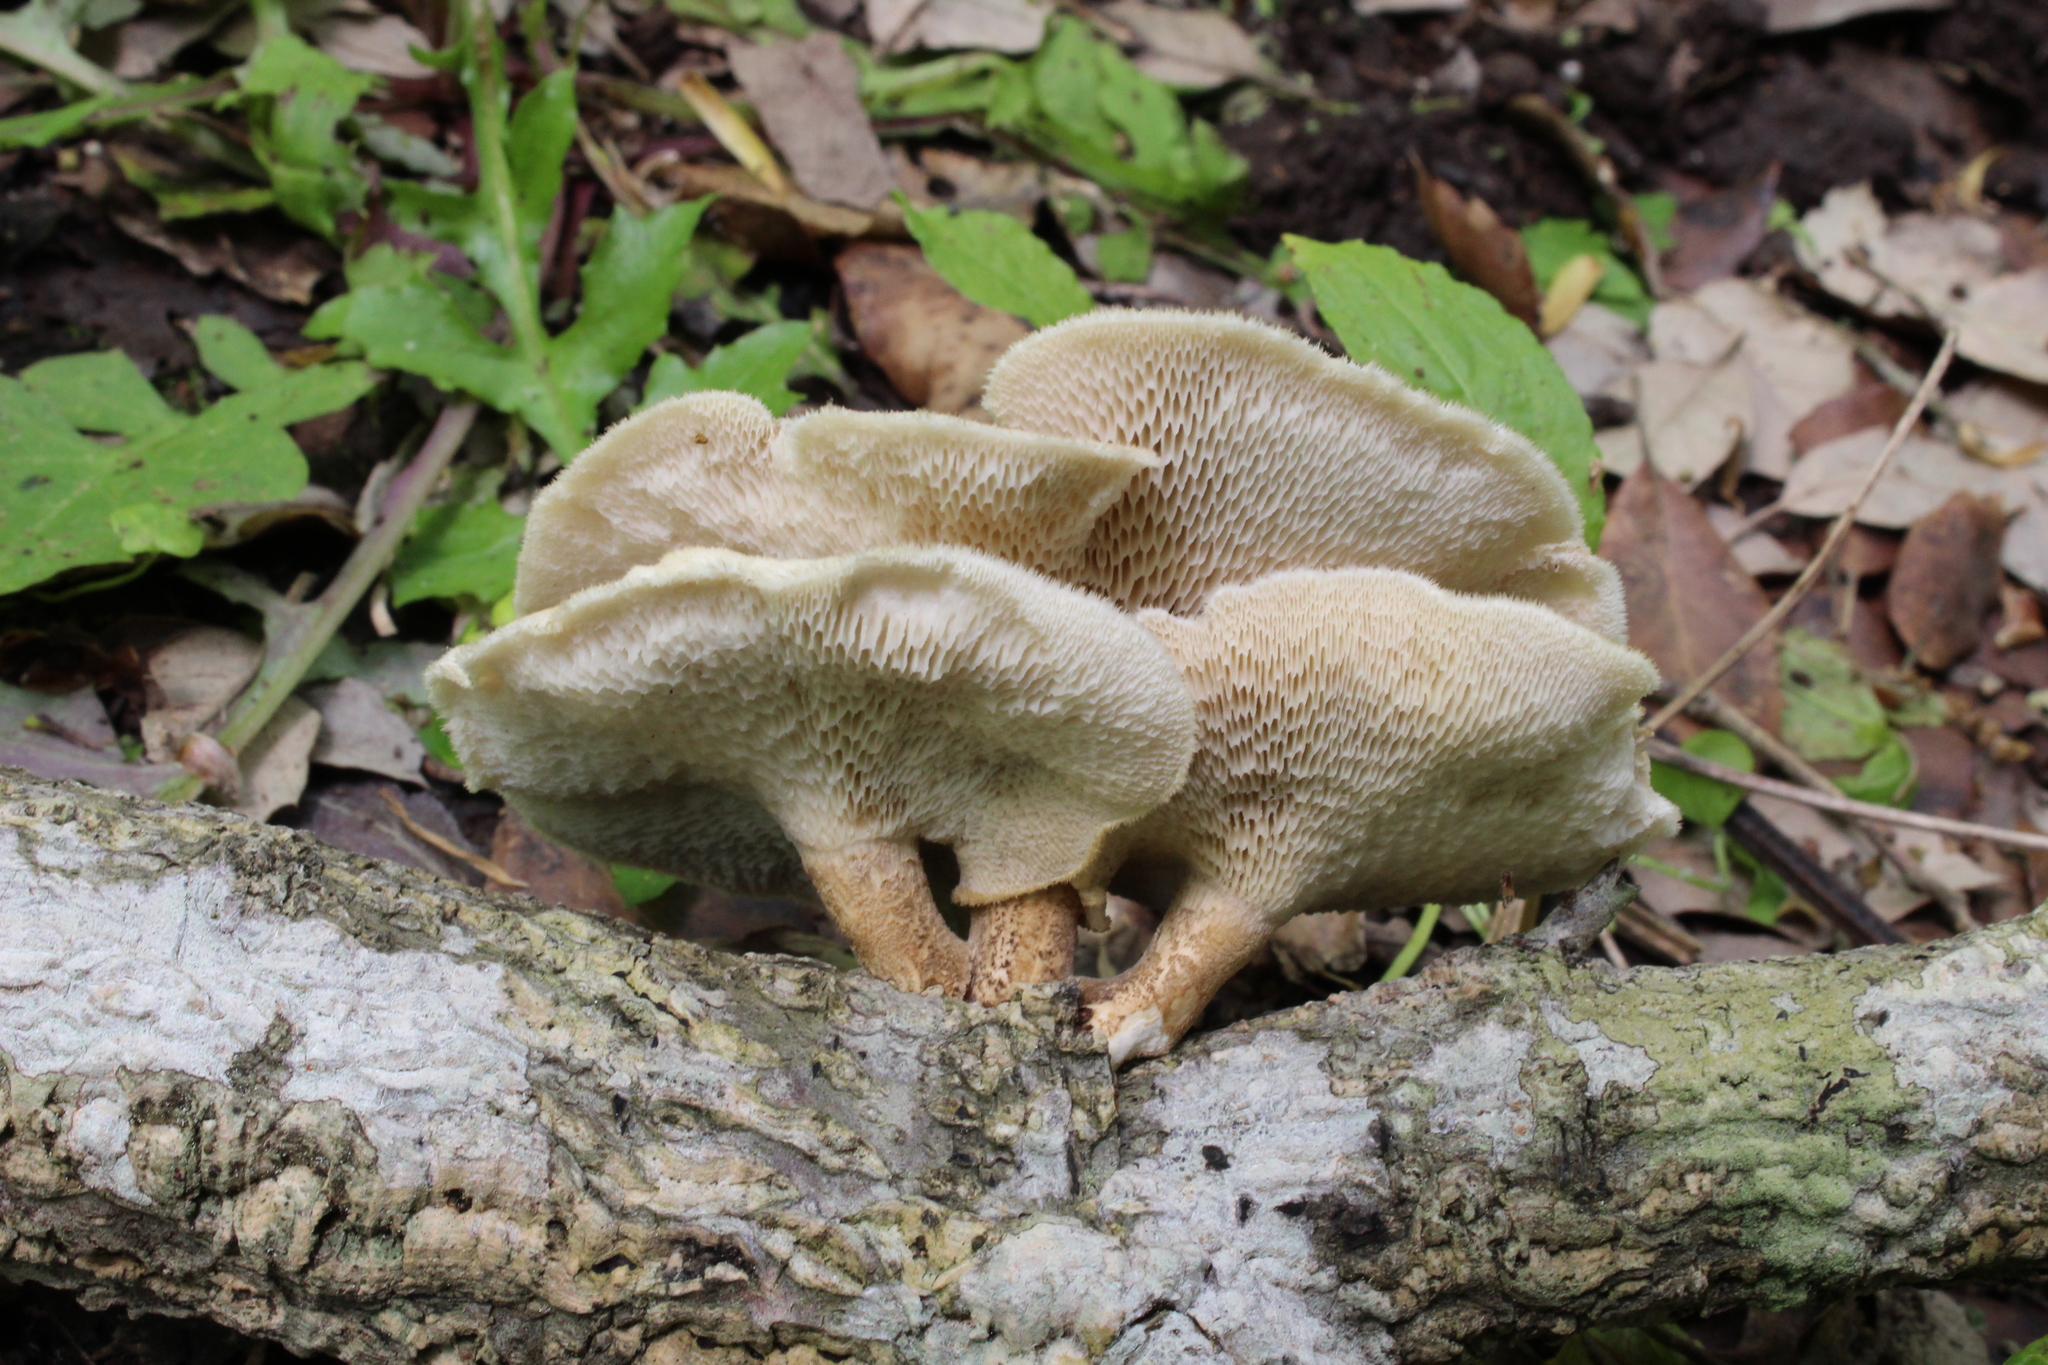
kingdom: Fungi
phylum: Basidiomycota
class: Agaricomycetes
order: Polyporales
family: Polyporaceae
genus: Lentinus
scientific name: Lentinus arcularius
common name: Spring polypore
